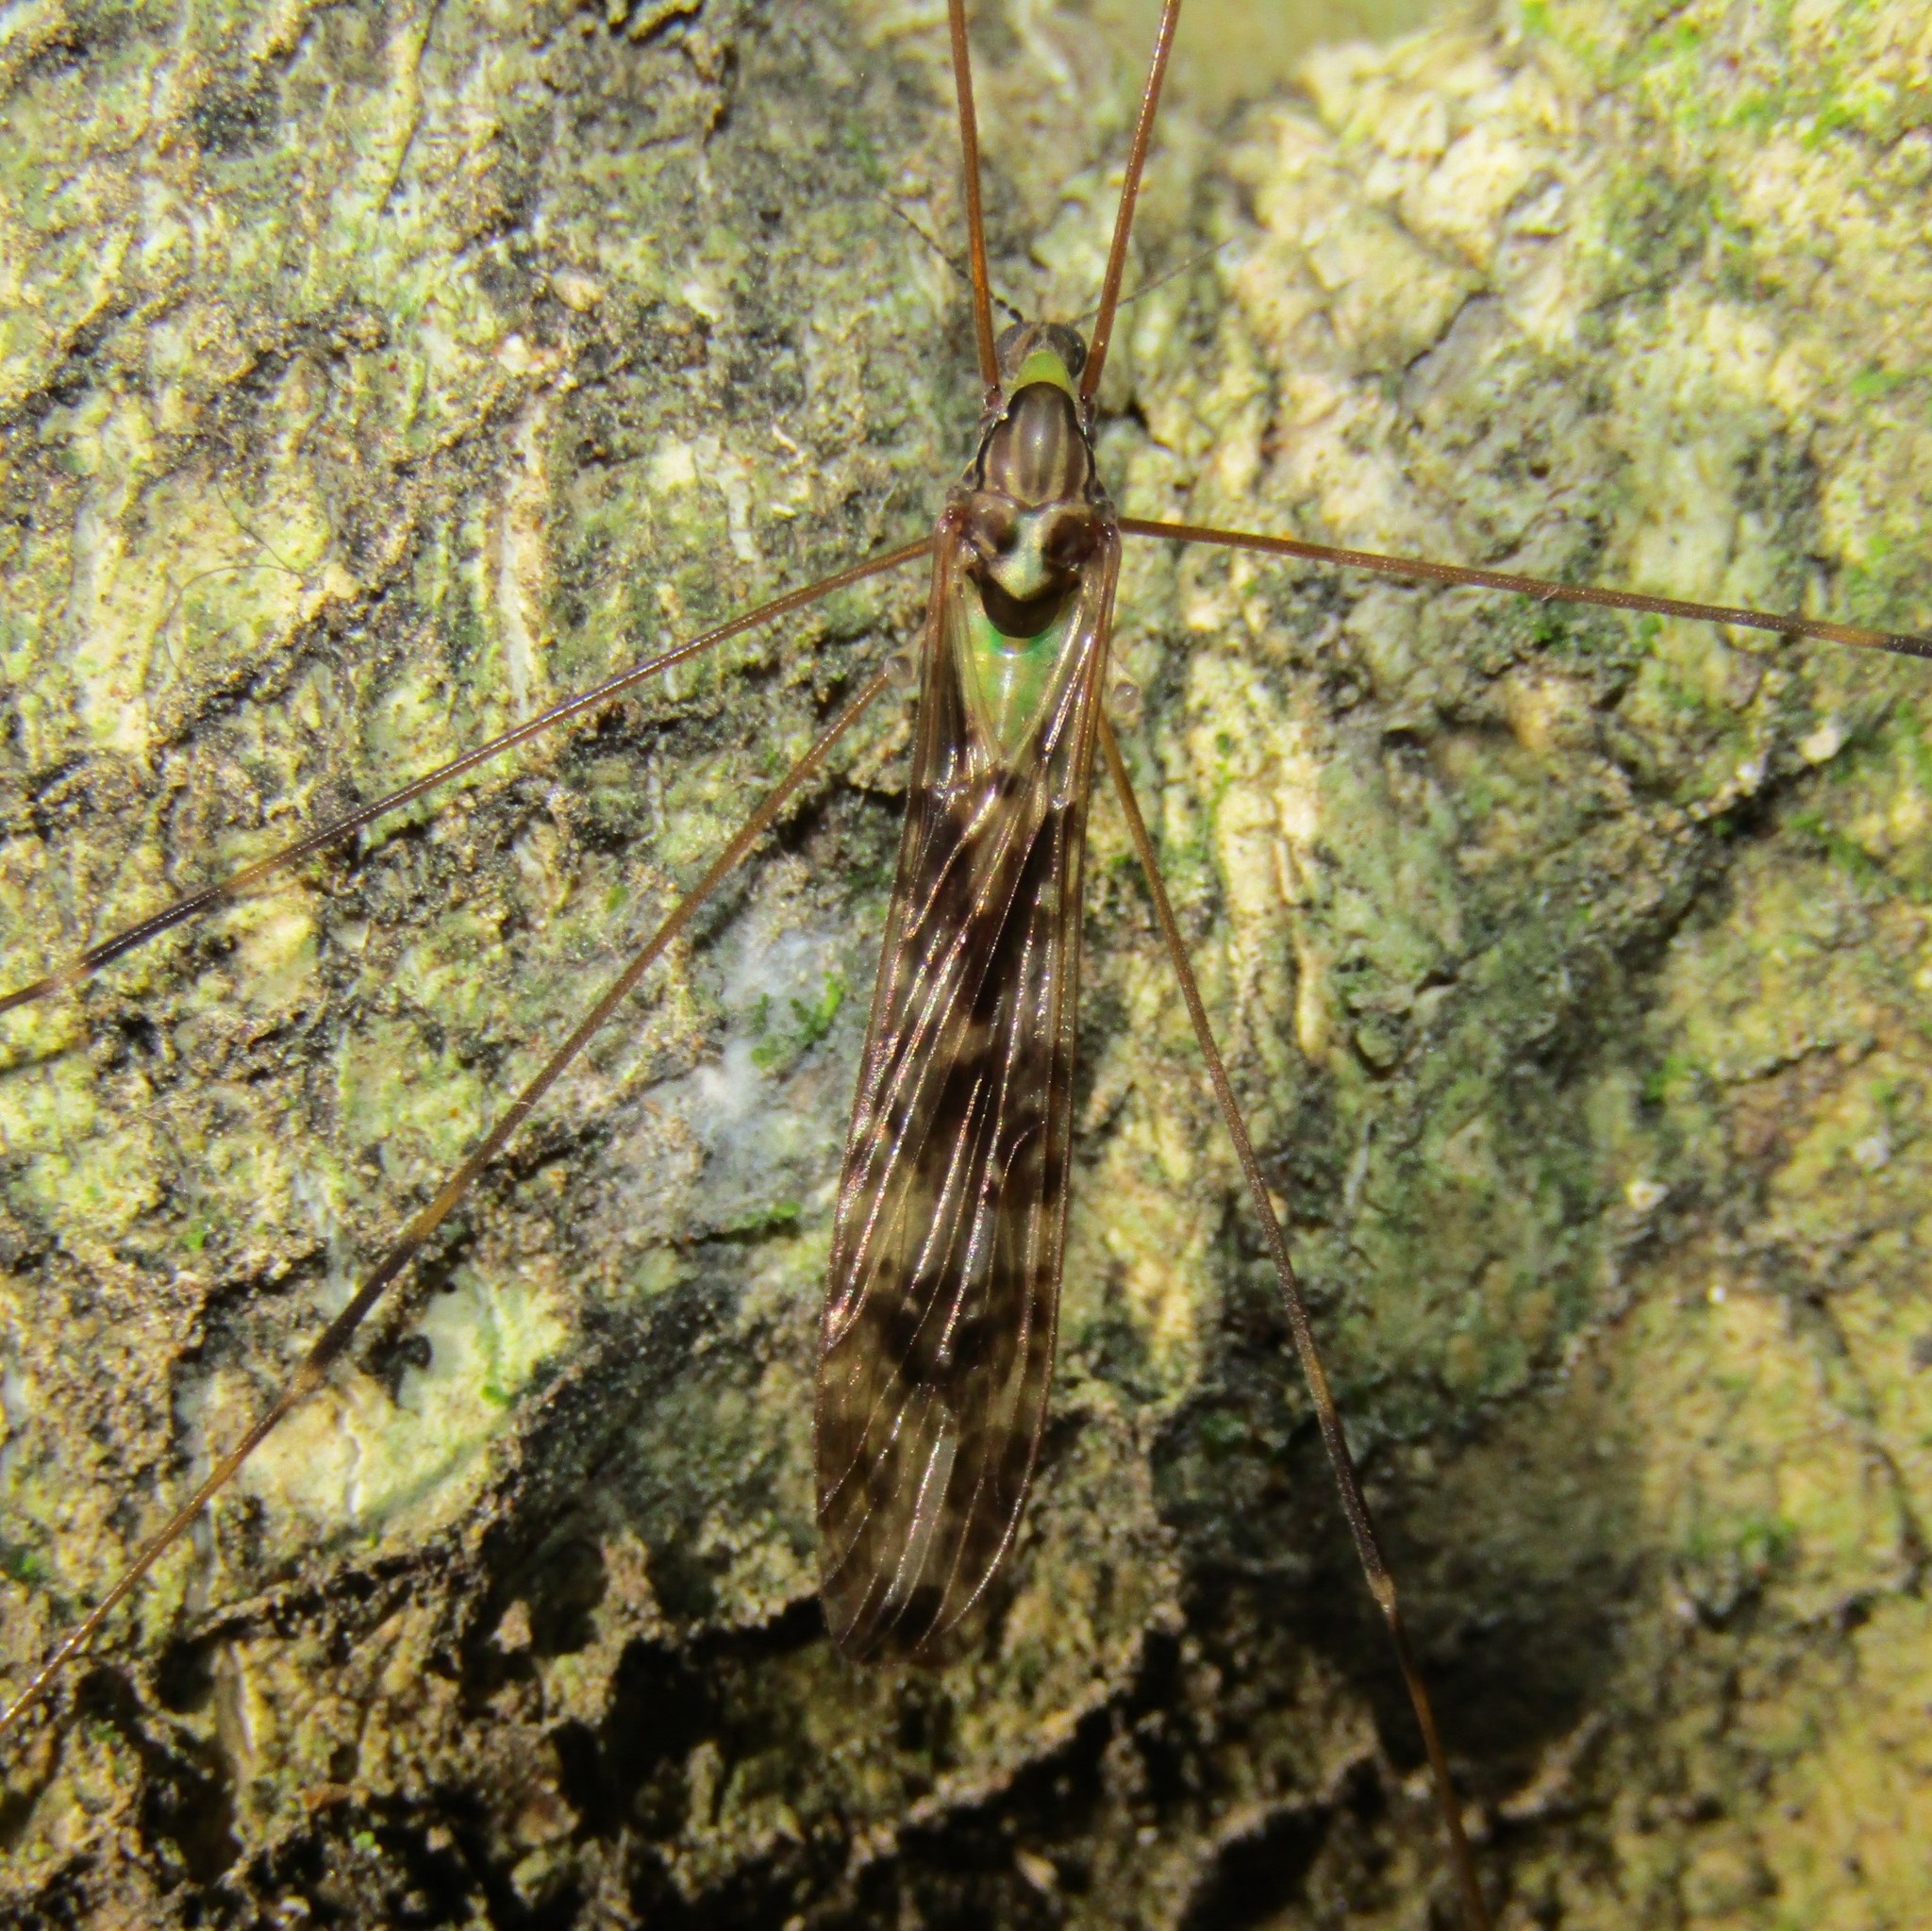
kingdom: Animalia
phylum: Arthropoda
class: Insecta
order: Diptera
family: Limoniidae
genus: Discobola
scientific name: Discobola dohrni
